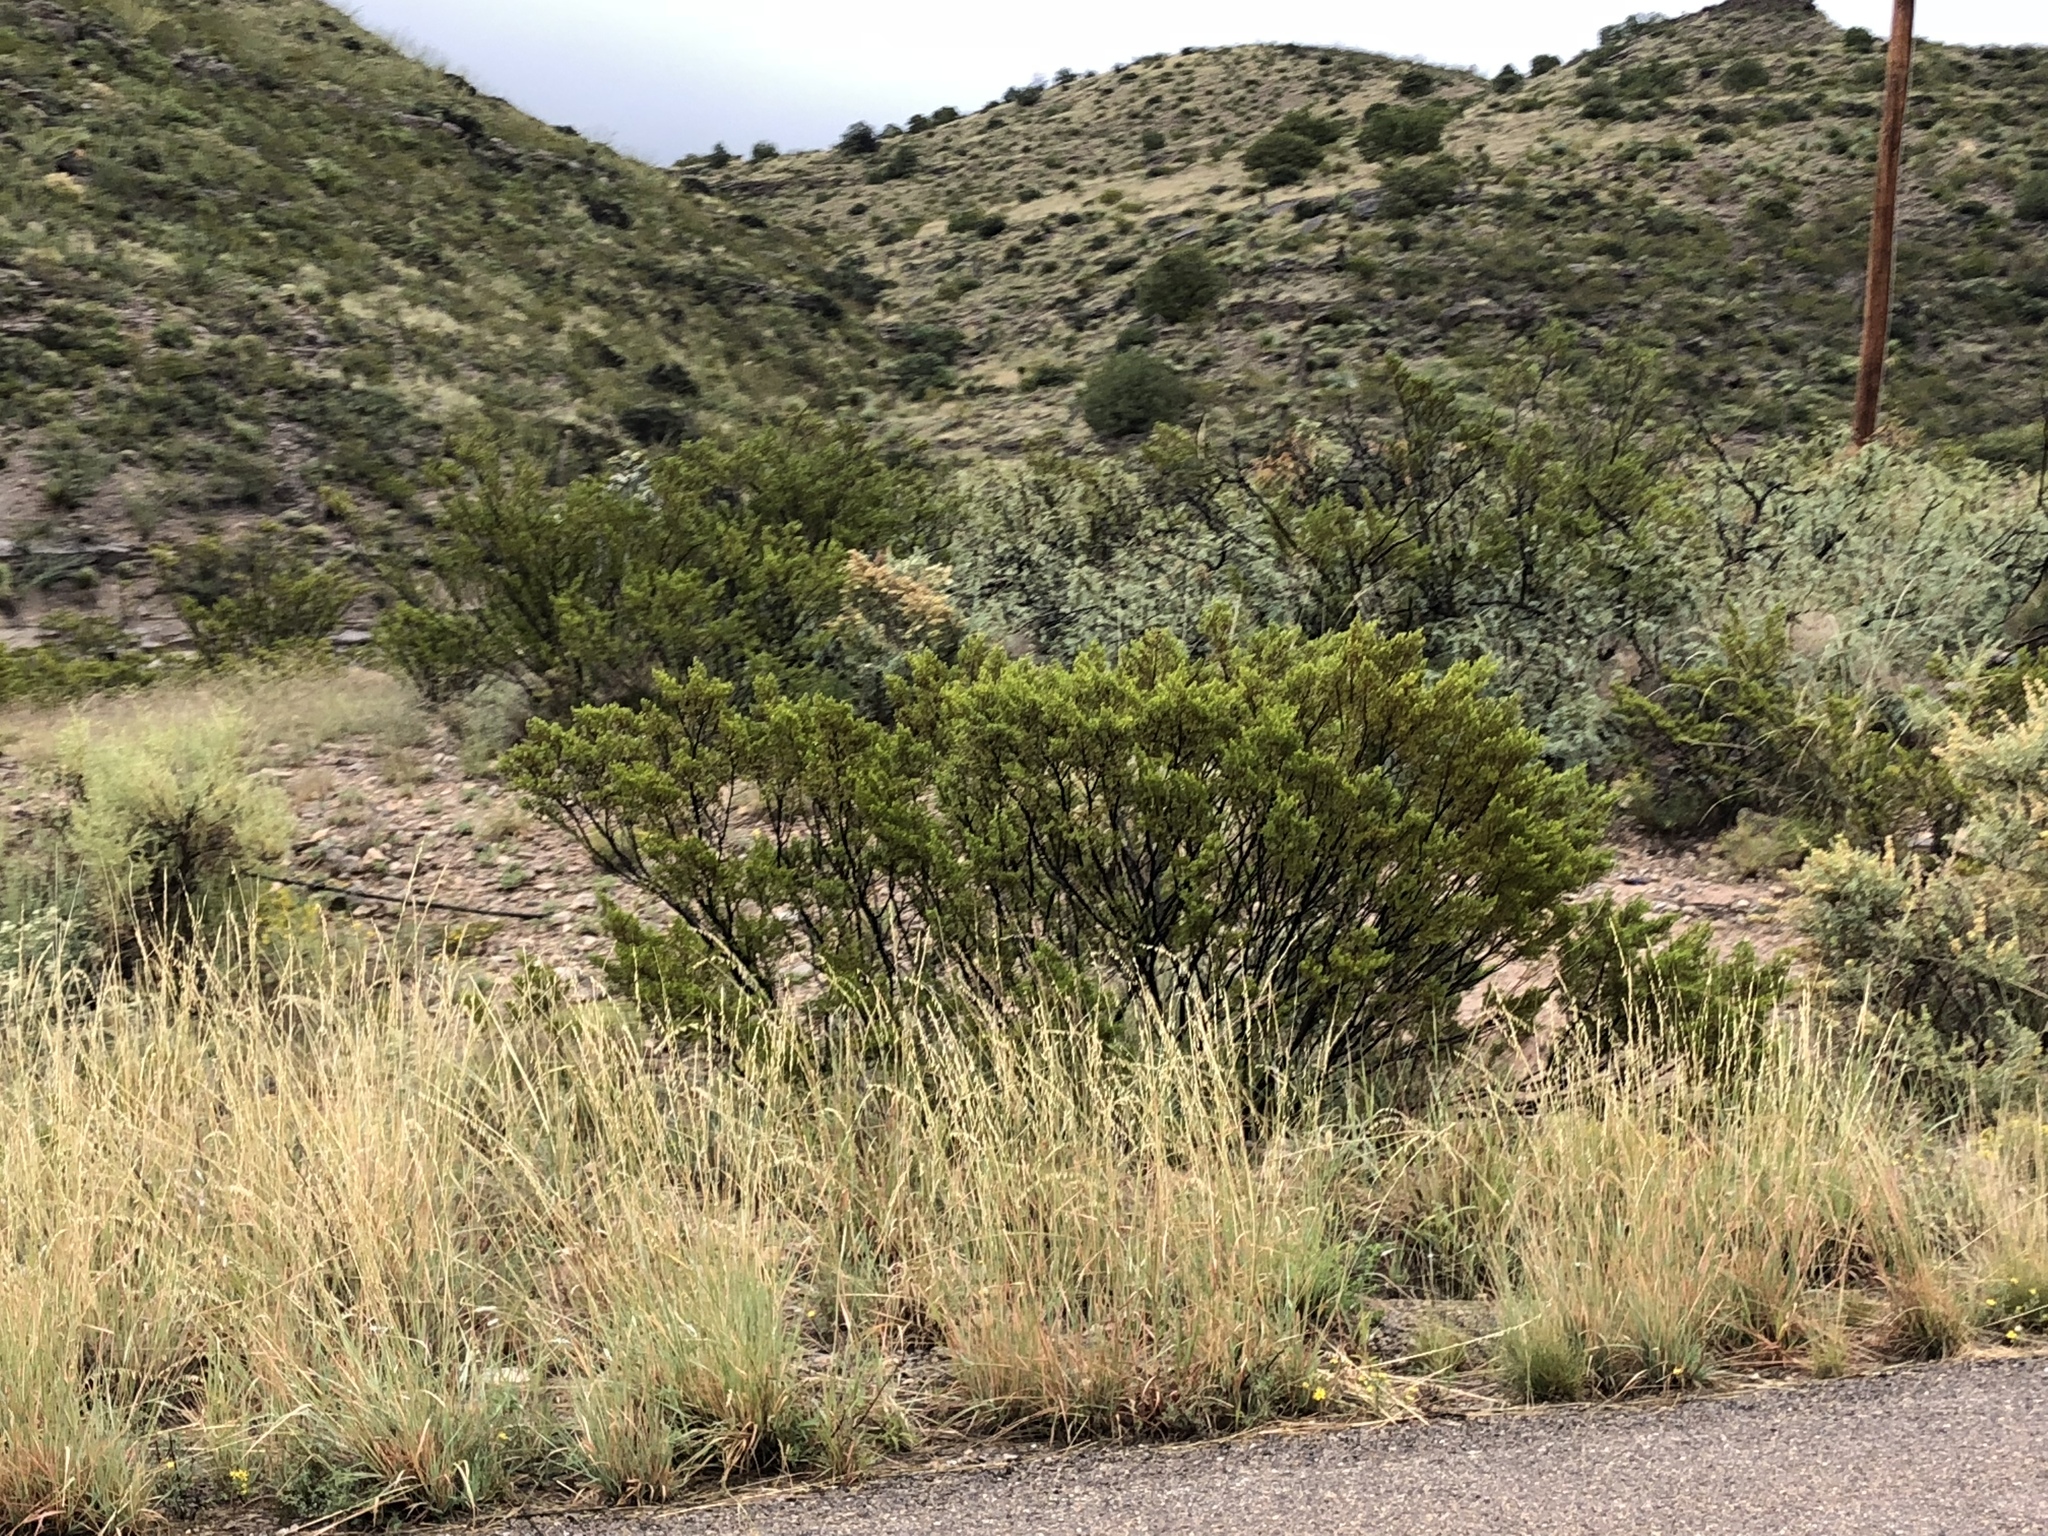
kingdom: Plantae
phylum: Tracheophyta
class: Magnoliopsida
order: Zygophyllales
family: Zygophyllaceae
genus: Larrea
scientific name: Larrea tridentata
